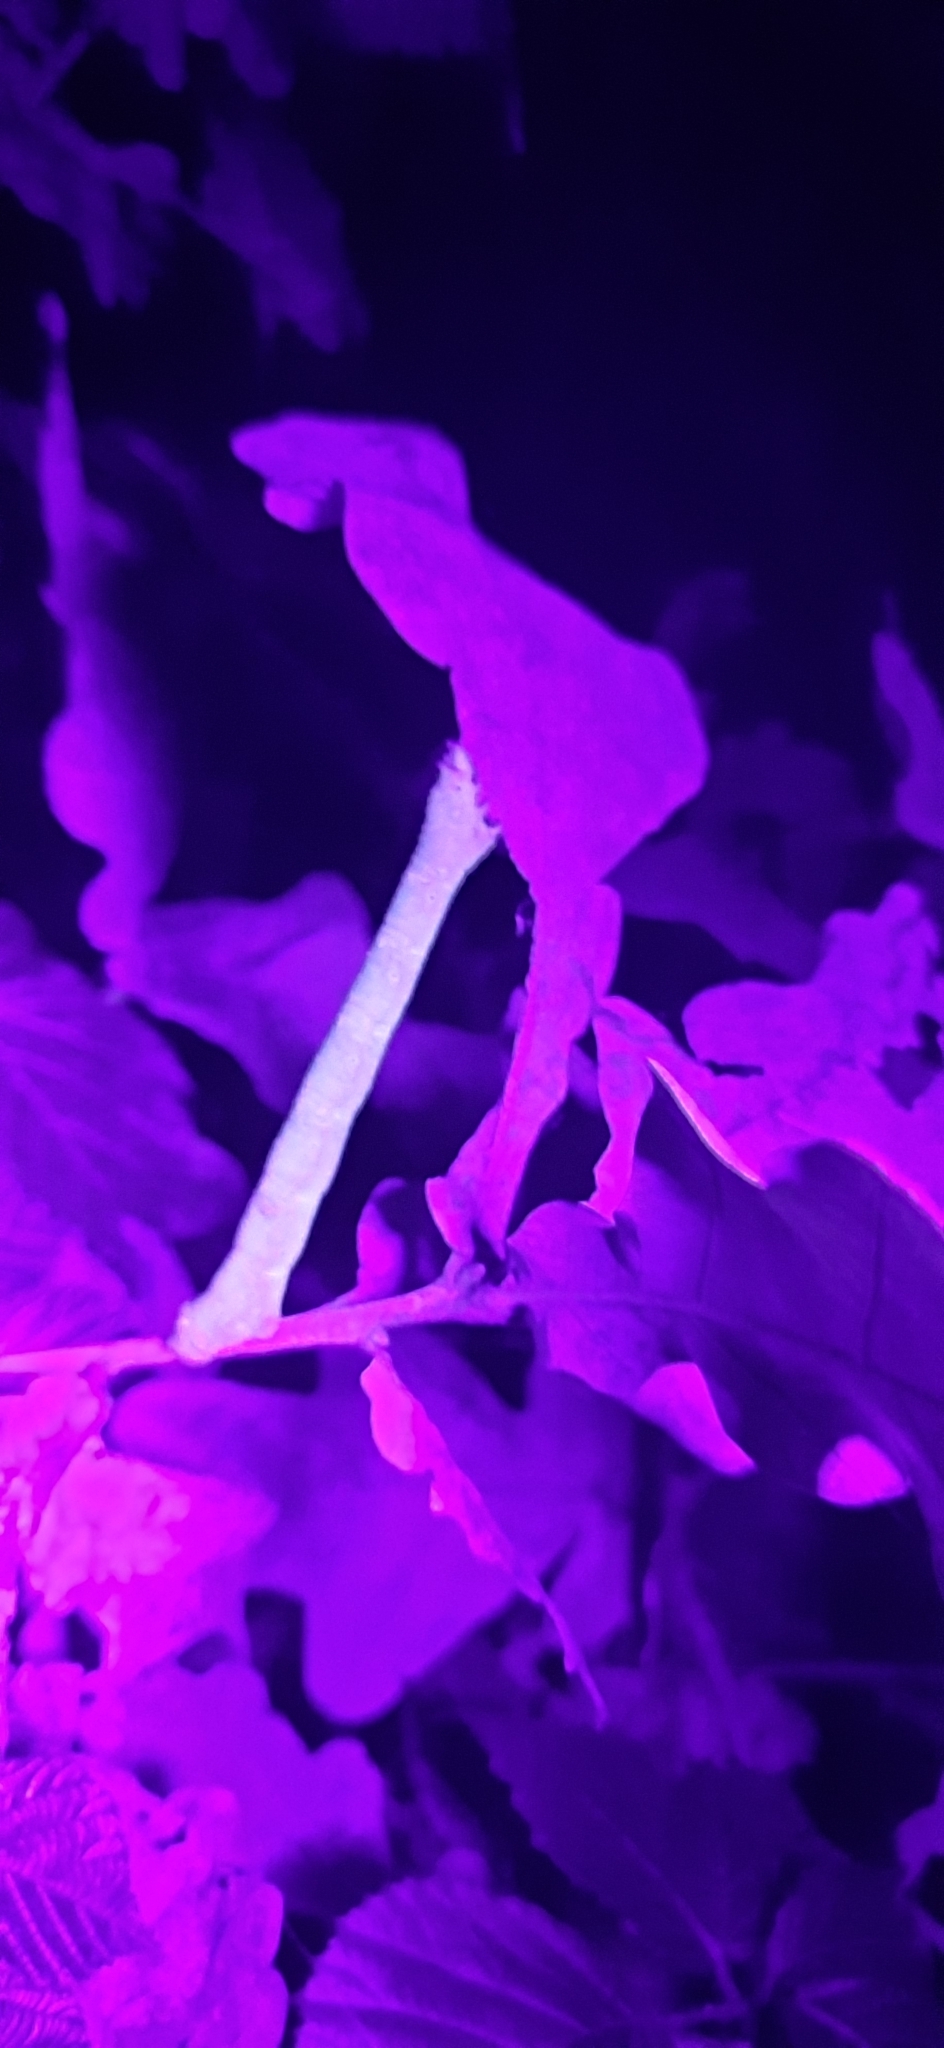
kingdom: Animalia
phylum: Arthropoda
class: Insecta
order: Lepidoptera
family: Geometridae
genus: Biston
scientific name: Biston betularia
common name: Peppered moth
